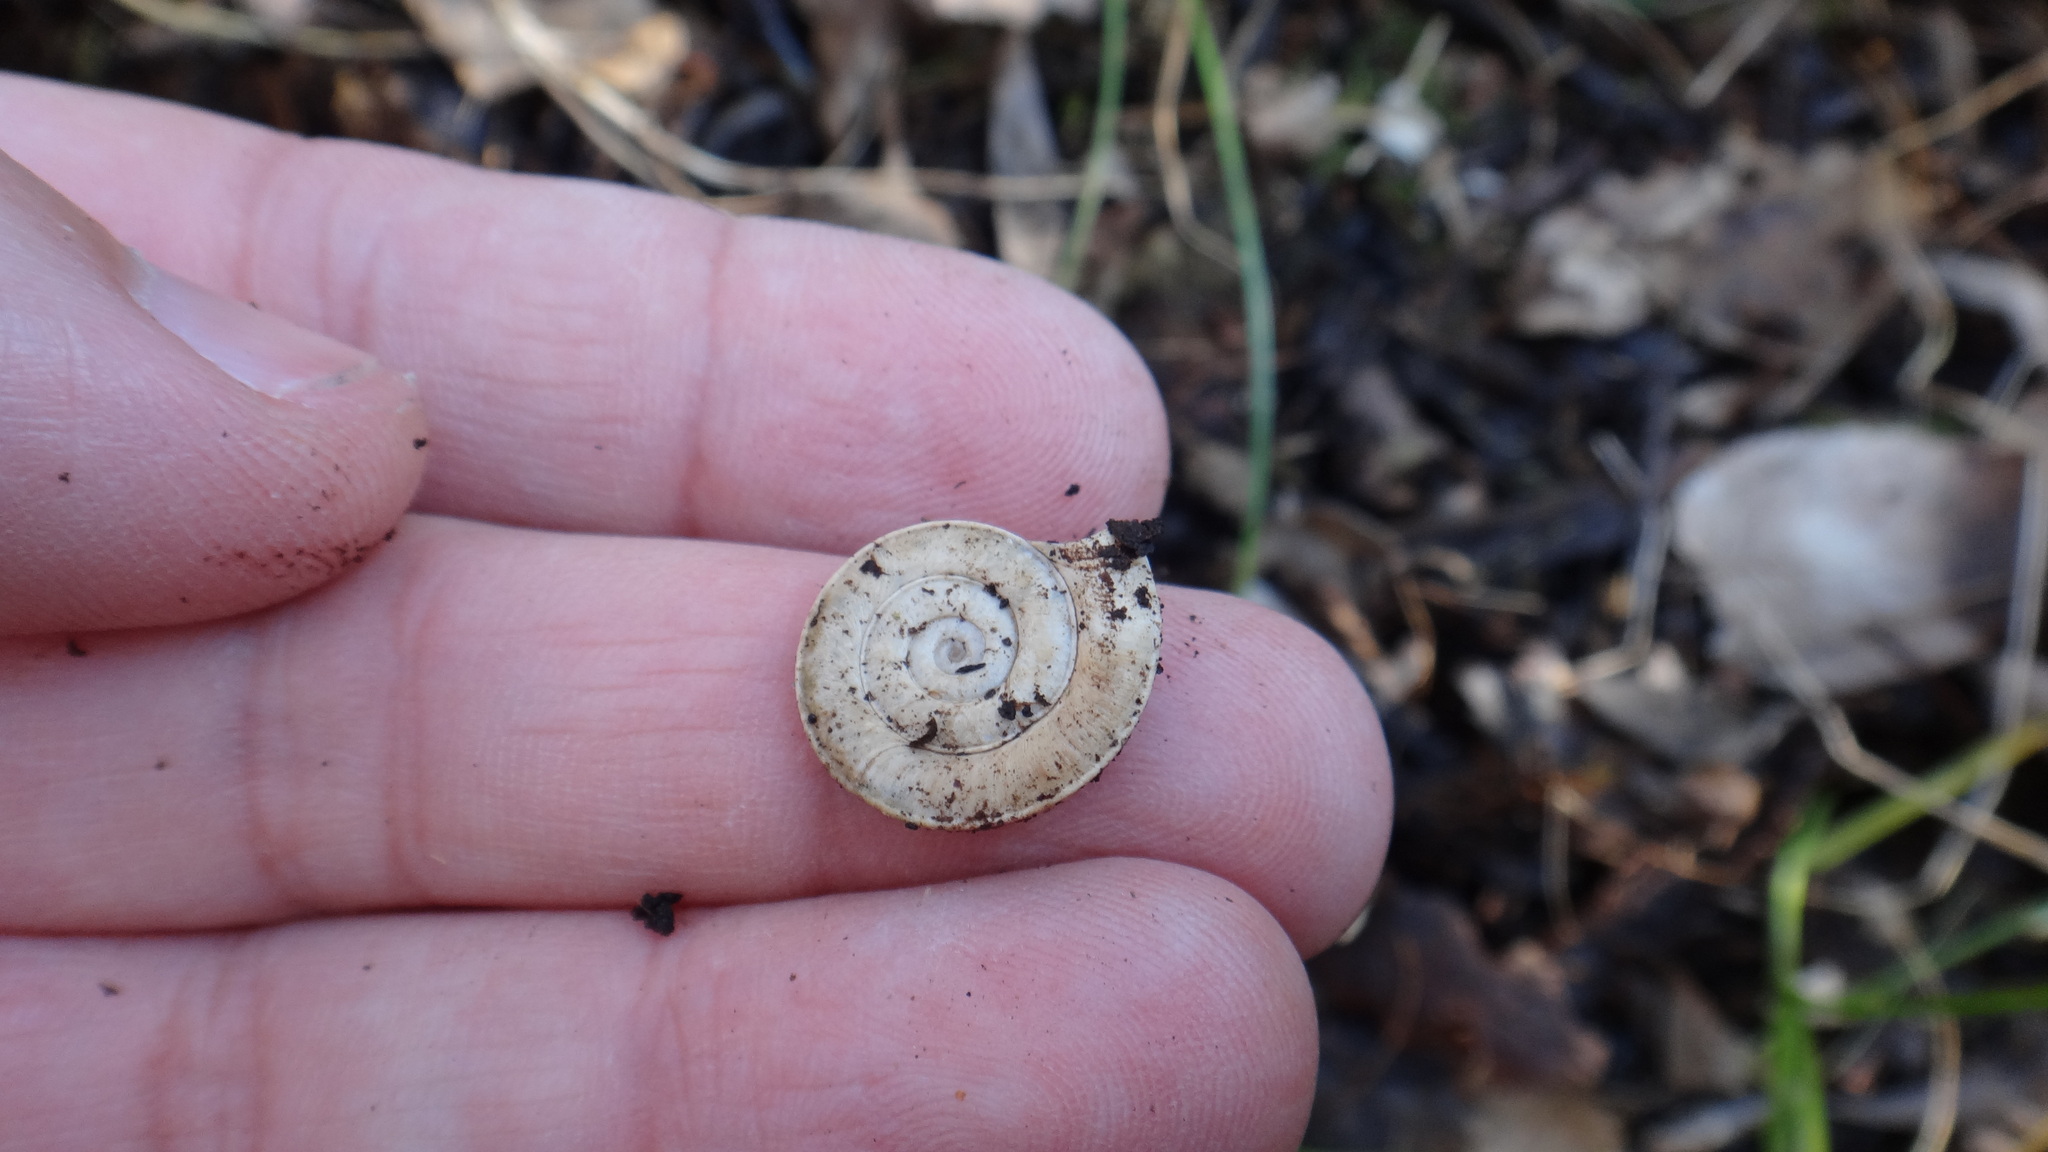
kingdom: Animalia
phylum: Mollusca
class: Gastropoda
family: Planorbidae
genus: Planorbis
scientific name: Planorbis planorbis
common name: Margined ramshorn
